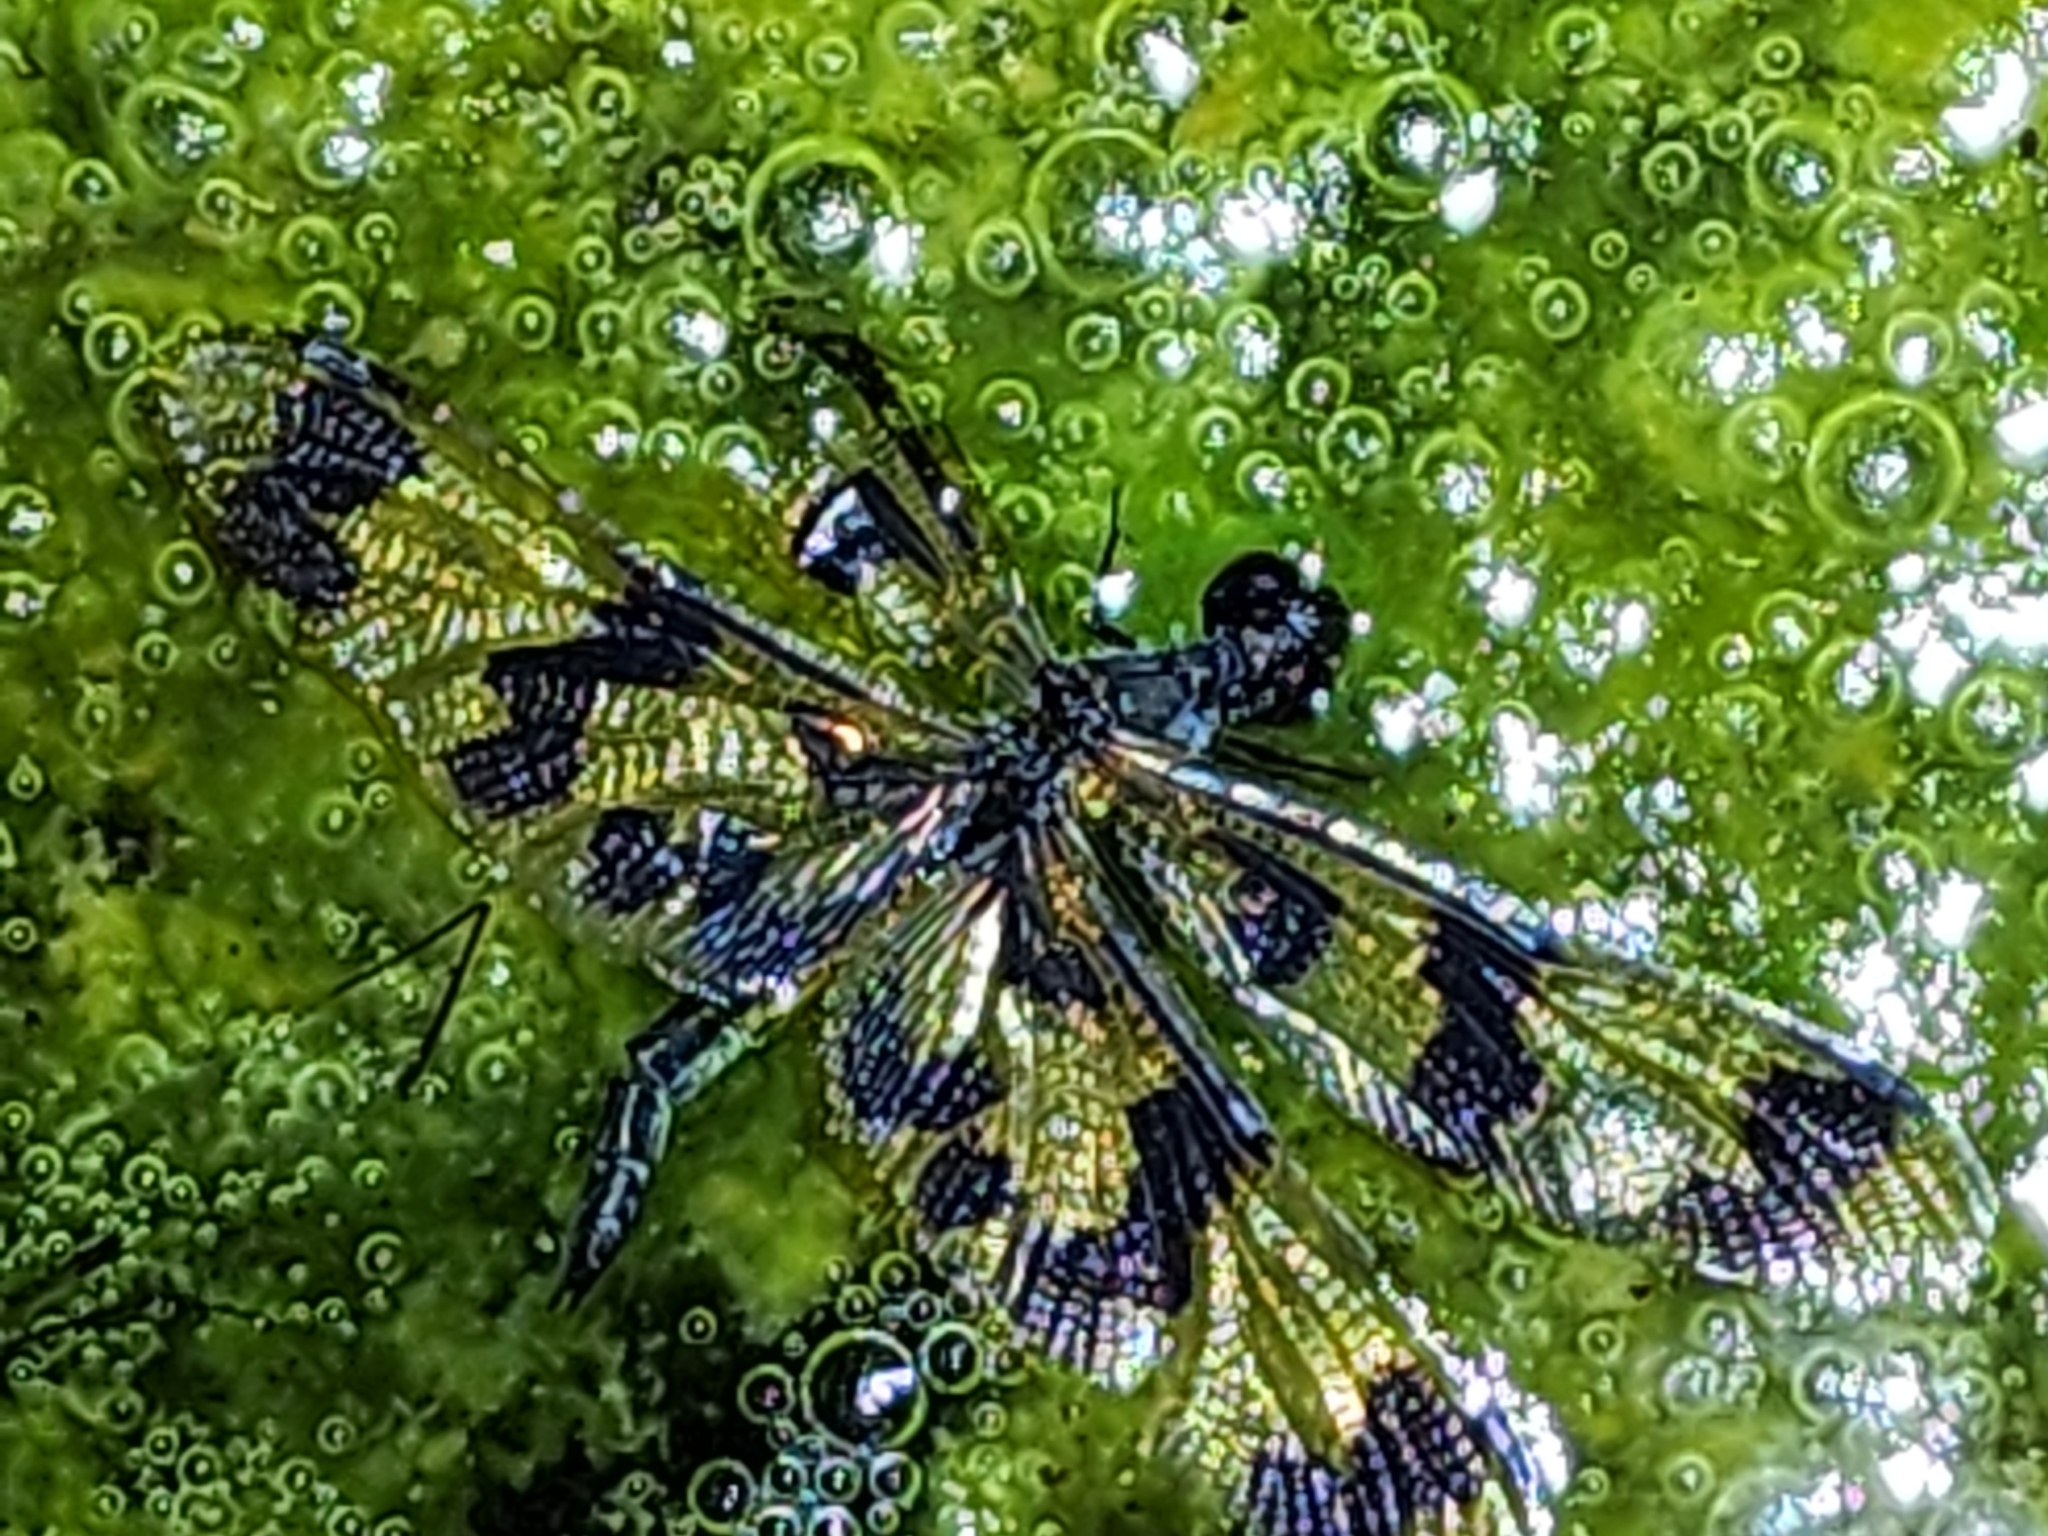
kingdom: Animalia
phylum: Arthropoda
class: Insecta
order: Odonata
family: Libellulidae
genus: Rhyothemis
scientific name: Rhyothemis graphiptera
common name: Graphic flutterer
